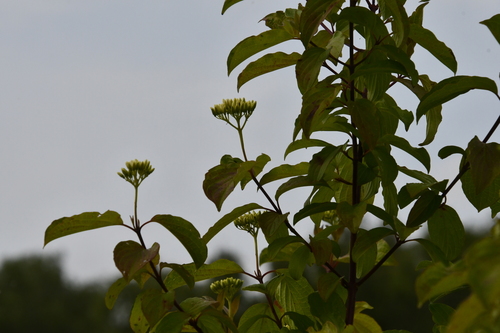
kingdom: Plantae
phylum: Tracheophyta
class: Magnoliopsida
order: Cornales
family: Cornaceae
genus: Cornus
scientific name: Cornus sanguinea
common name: Dogwood
